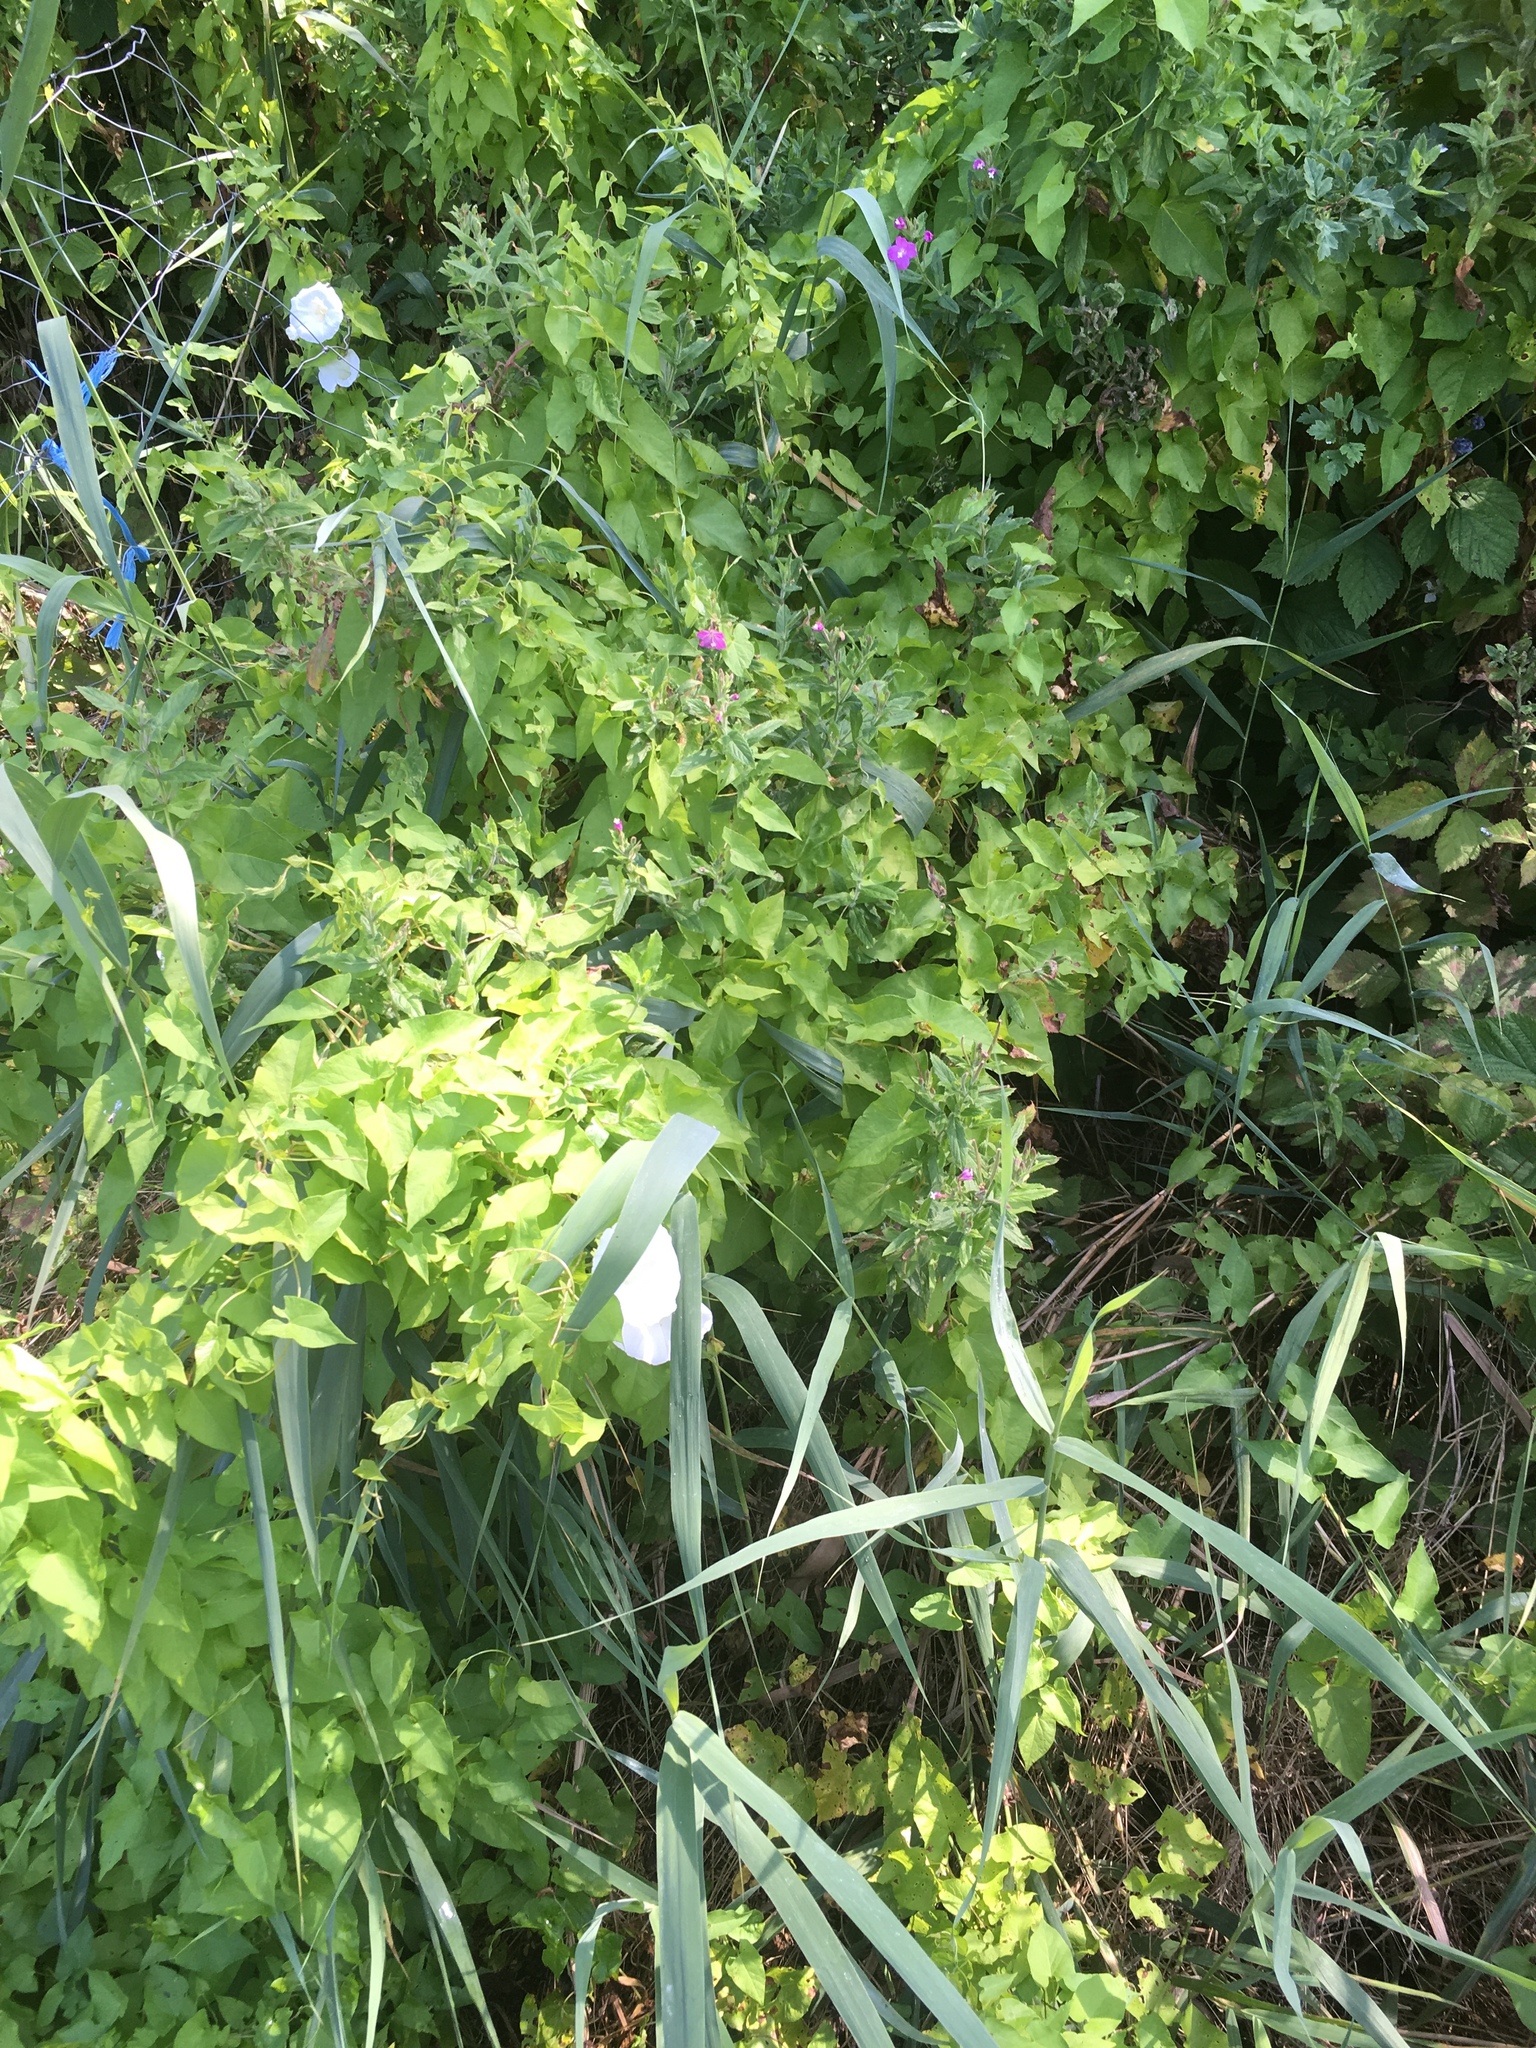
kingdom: Plantae
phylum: Tracheophyta
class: Magnoliopsida
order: Myrtales
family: Onagraceae
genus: Epilobium
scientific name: Epilobium hirsutum
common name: Great willowherb
